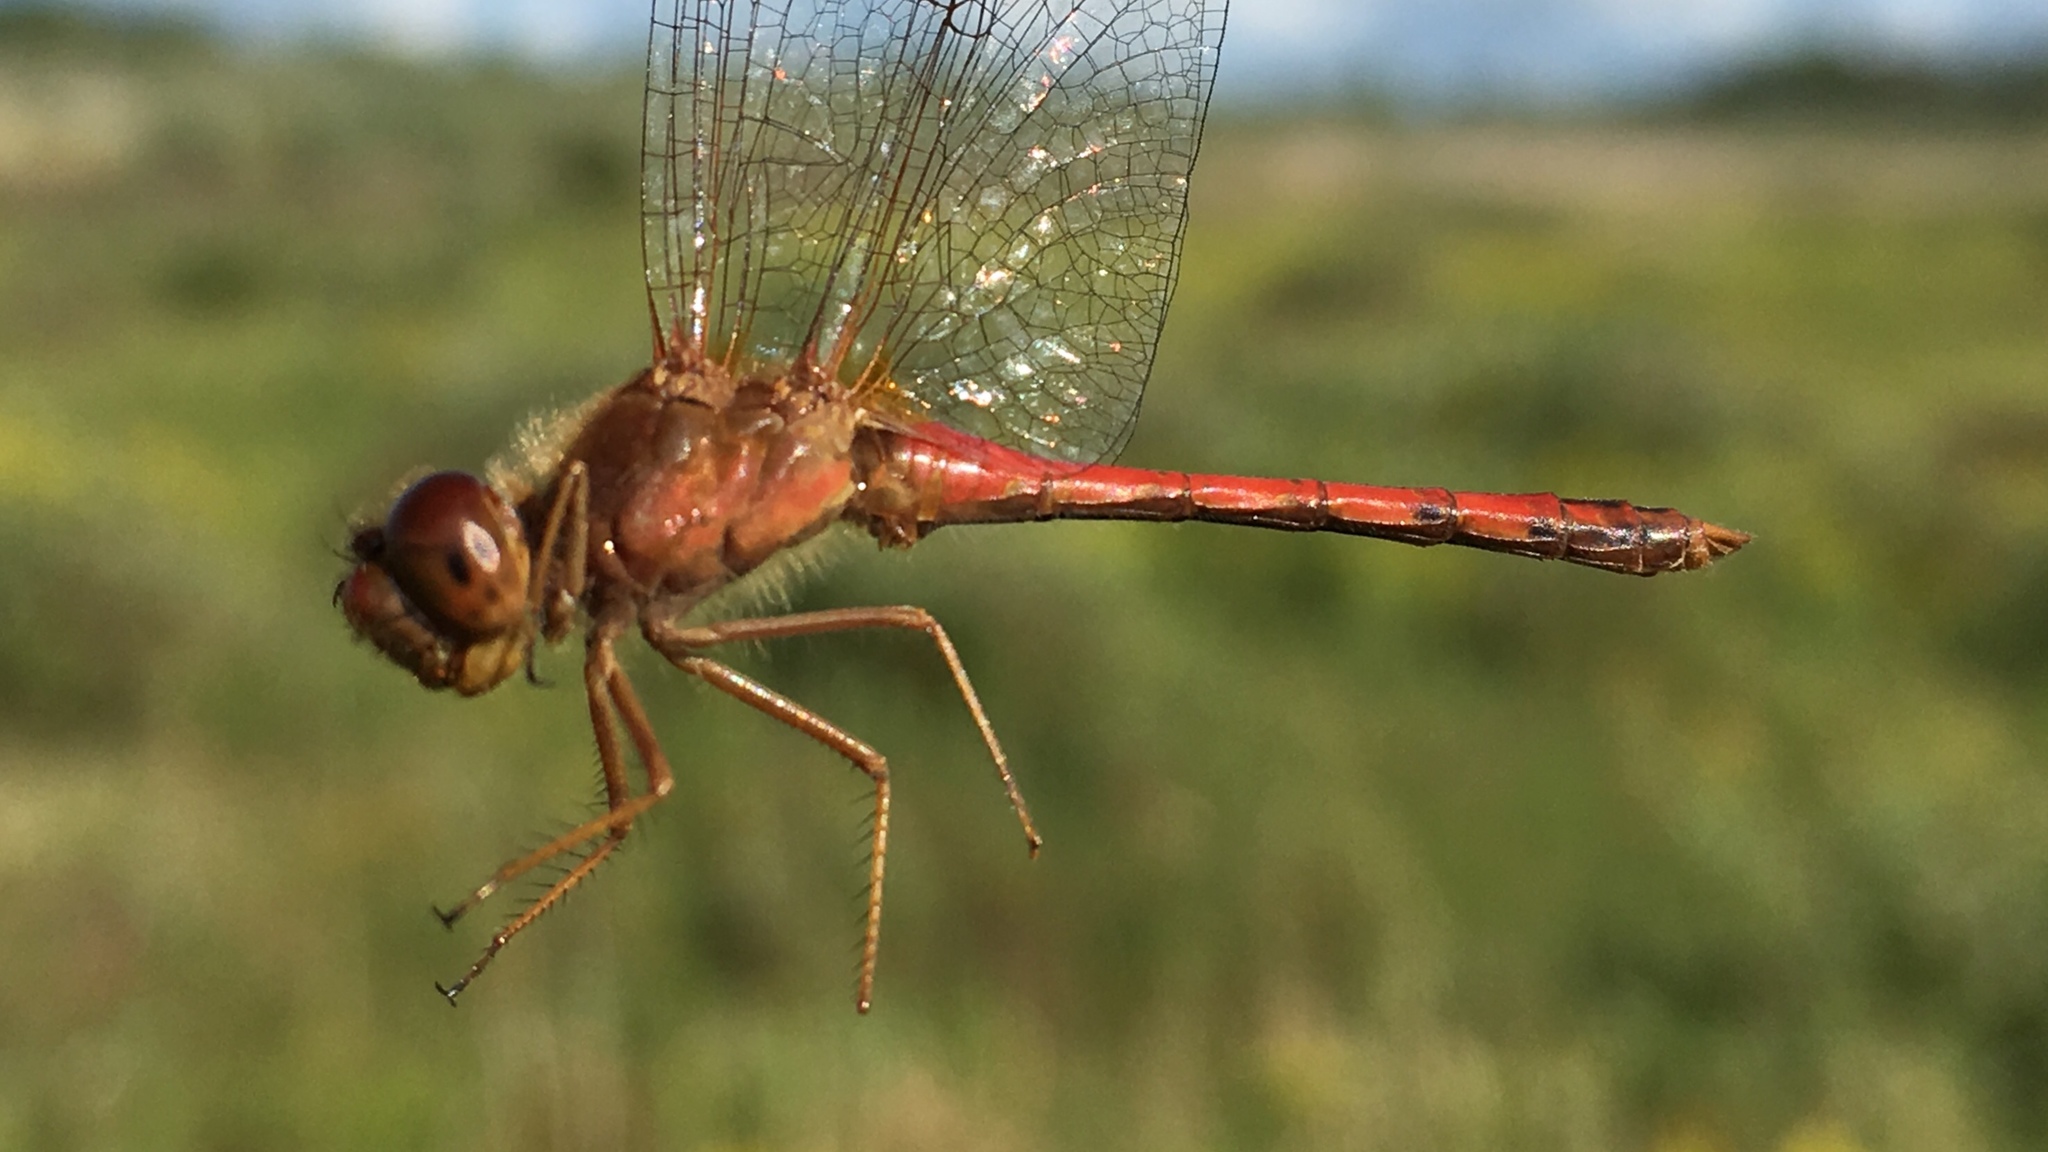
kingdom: Animalia
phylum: Arthropoda
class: Insecta
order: Odonata
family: Libellulidae
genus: Sympetrum
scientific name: Sympetrum vicinum
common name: Autumn meadowhawk
